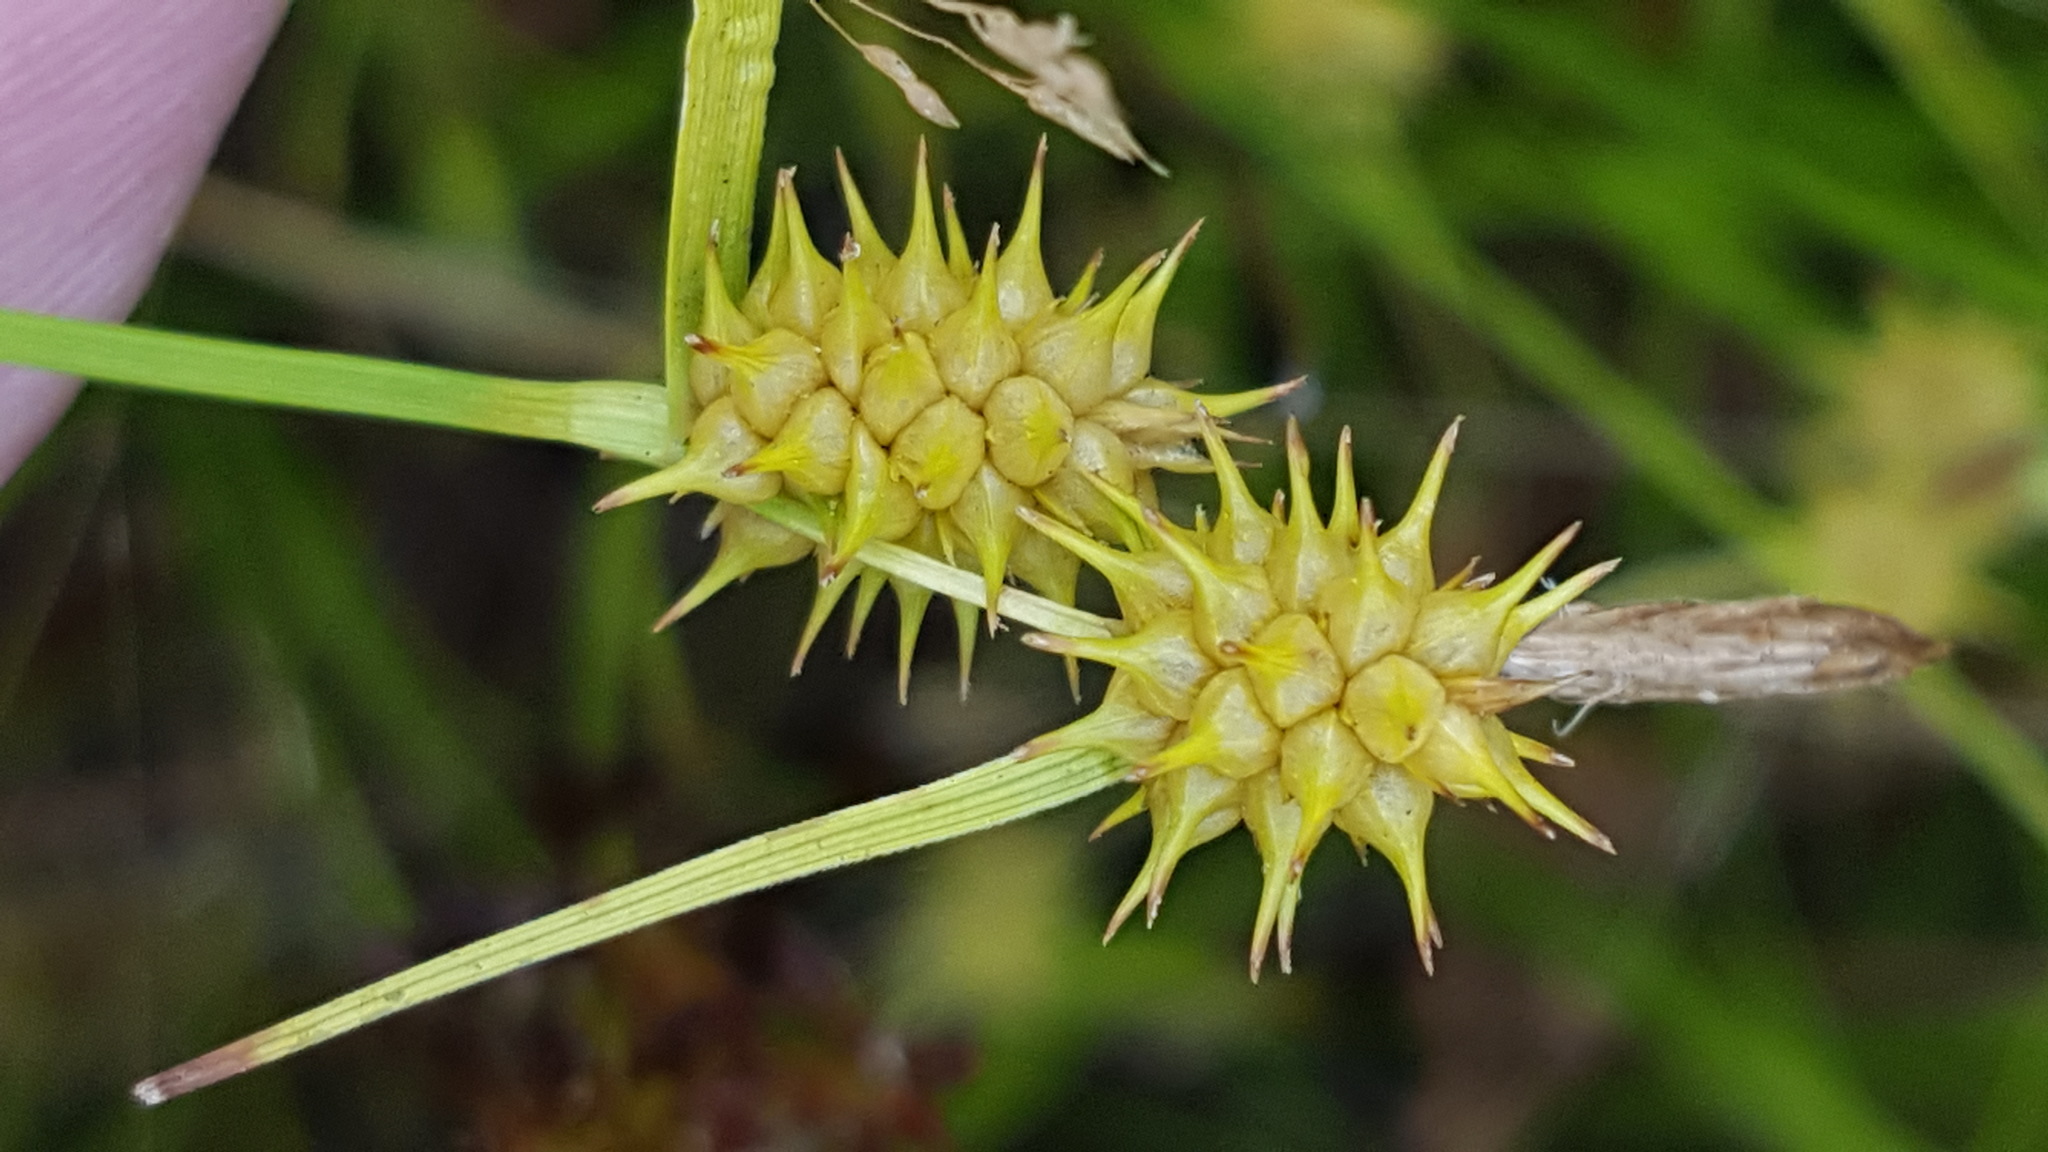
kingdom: Plantae
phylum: Tracheophyta
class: Liliopsida
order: Poales
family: Cyperaceae
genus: Carex
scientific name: Carex cryptolepis
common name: Northeastern sedge
